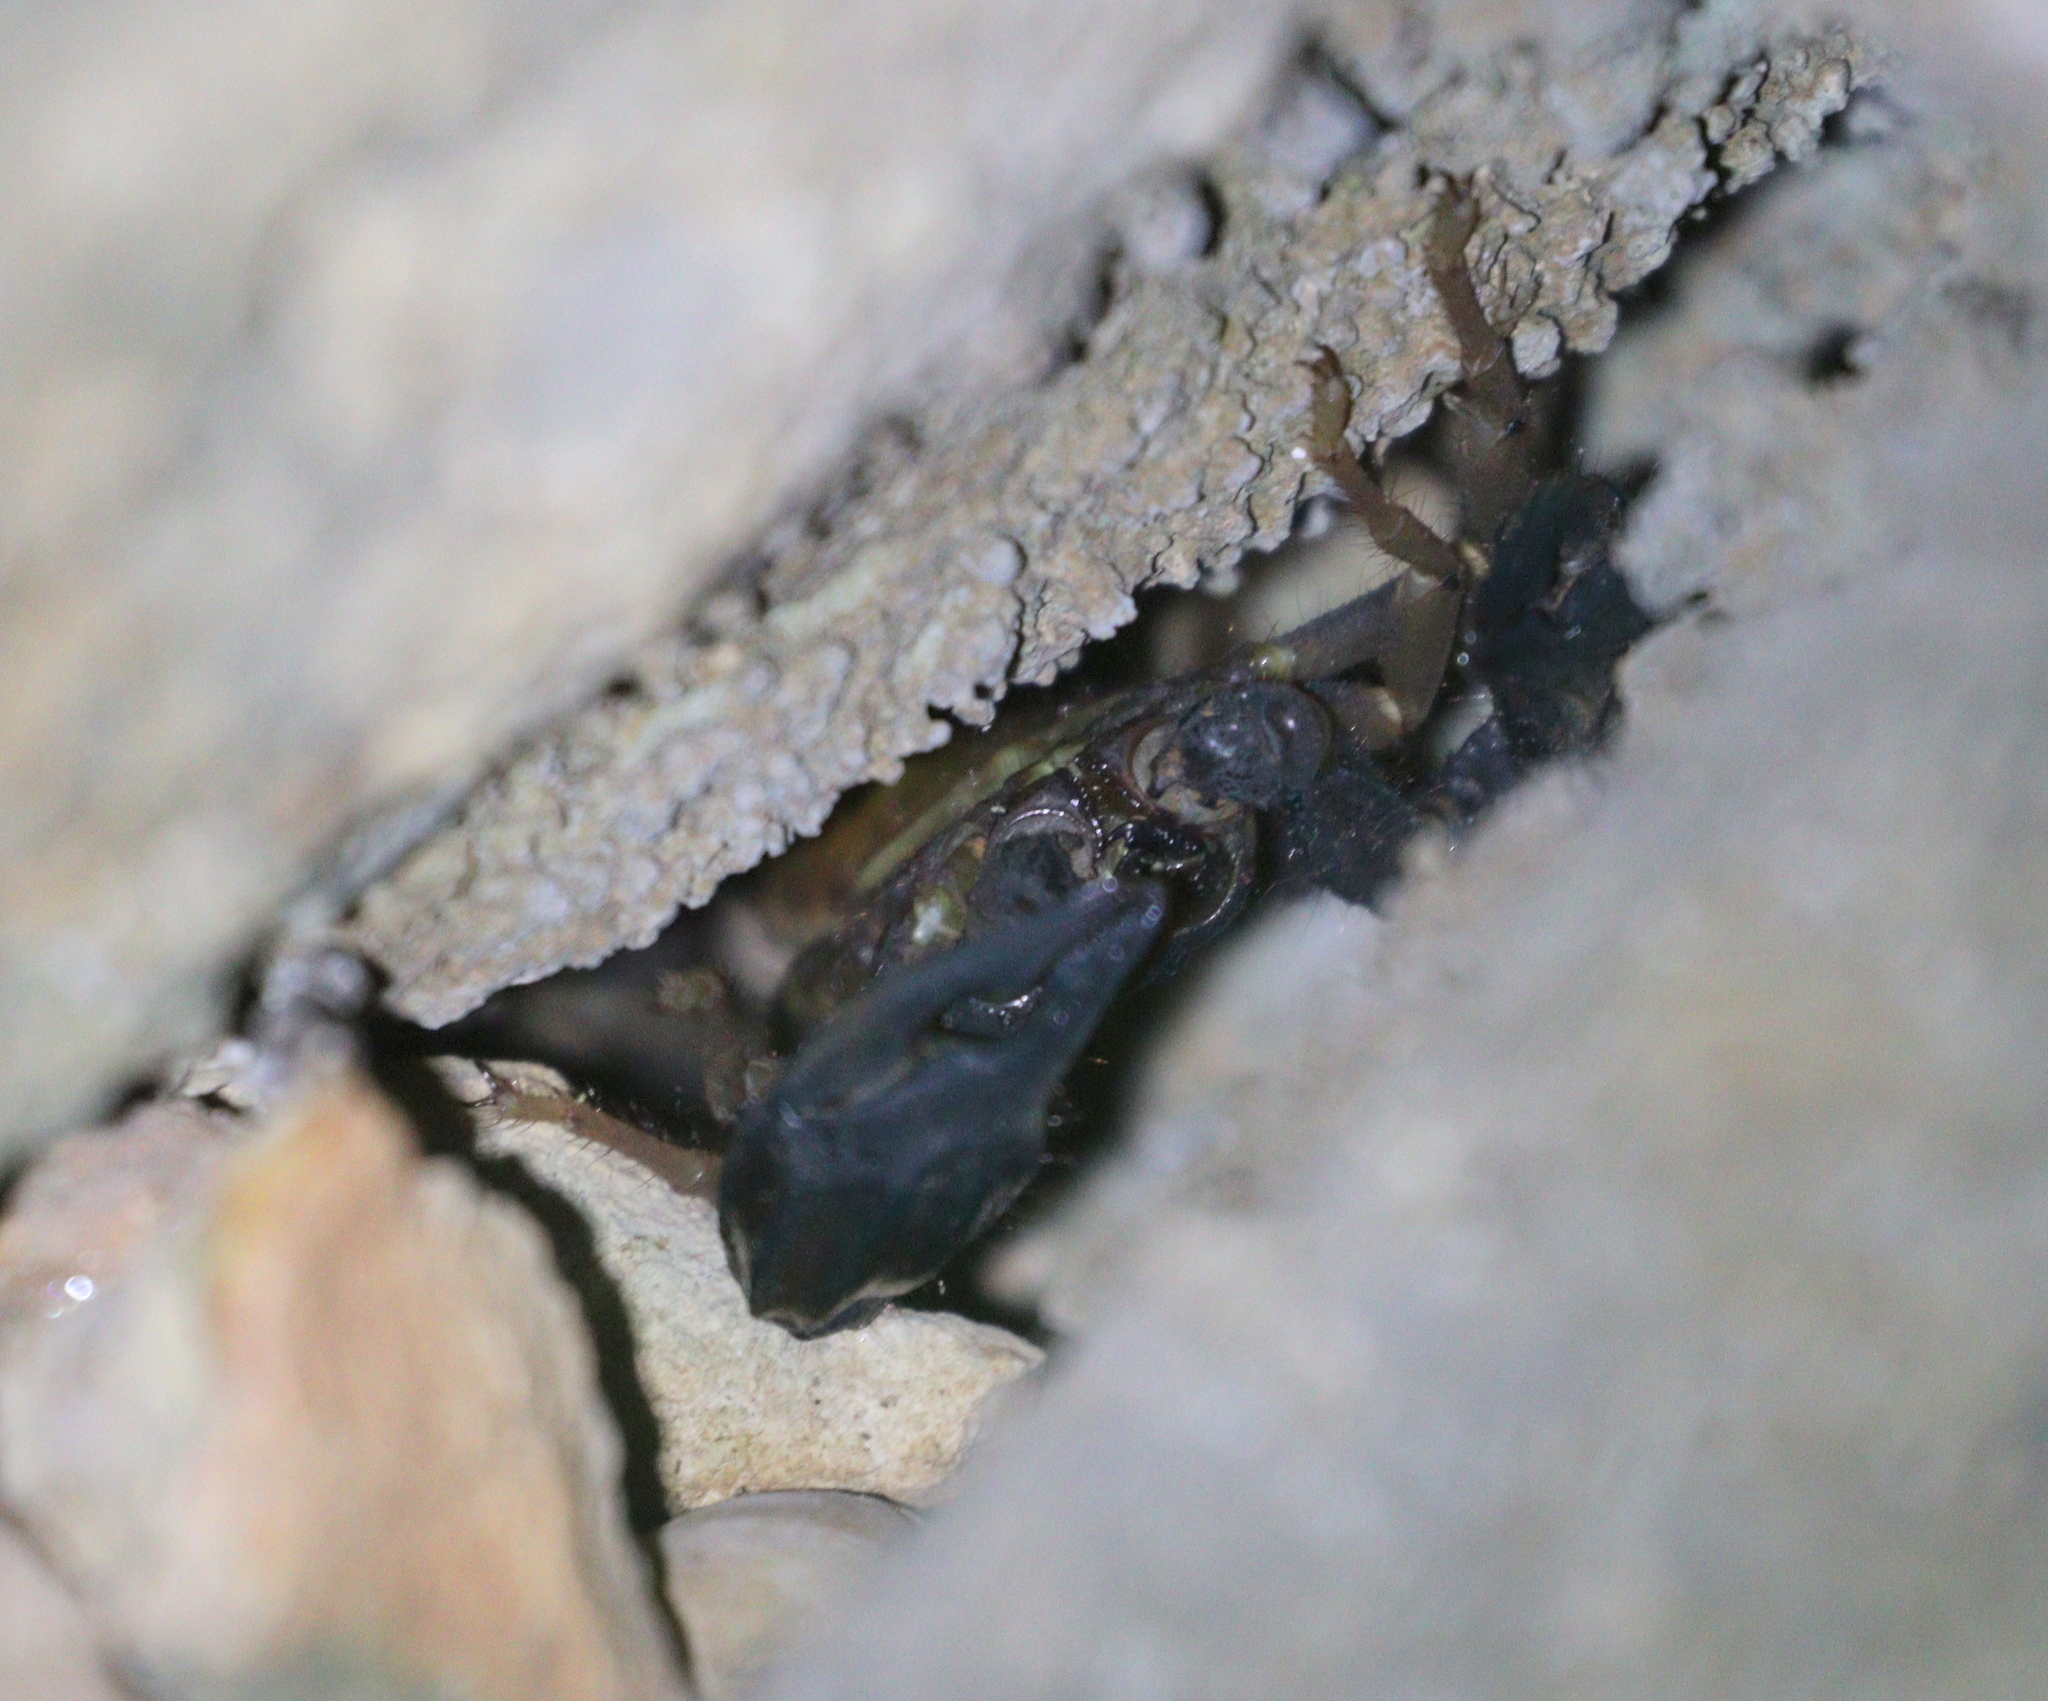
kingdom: Animalia
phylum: Arthropoda
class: Arachnida
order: Scorpiones
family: Iuridae
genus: Anatoliurus
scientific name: Anatoliurus kraepelini
